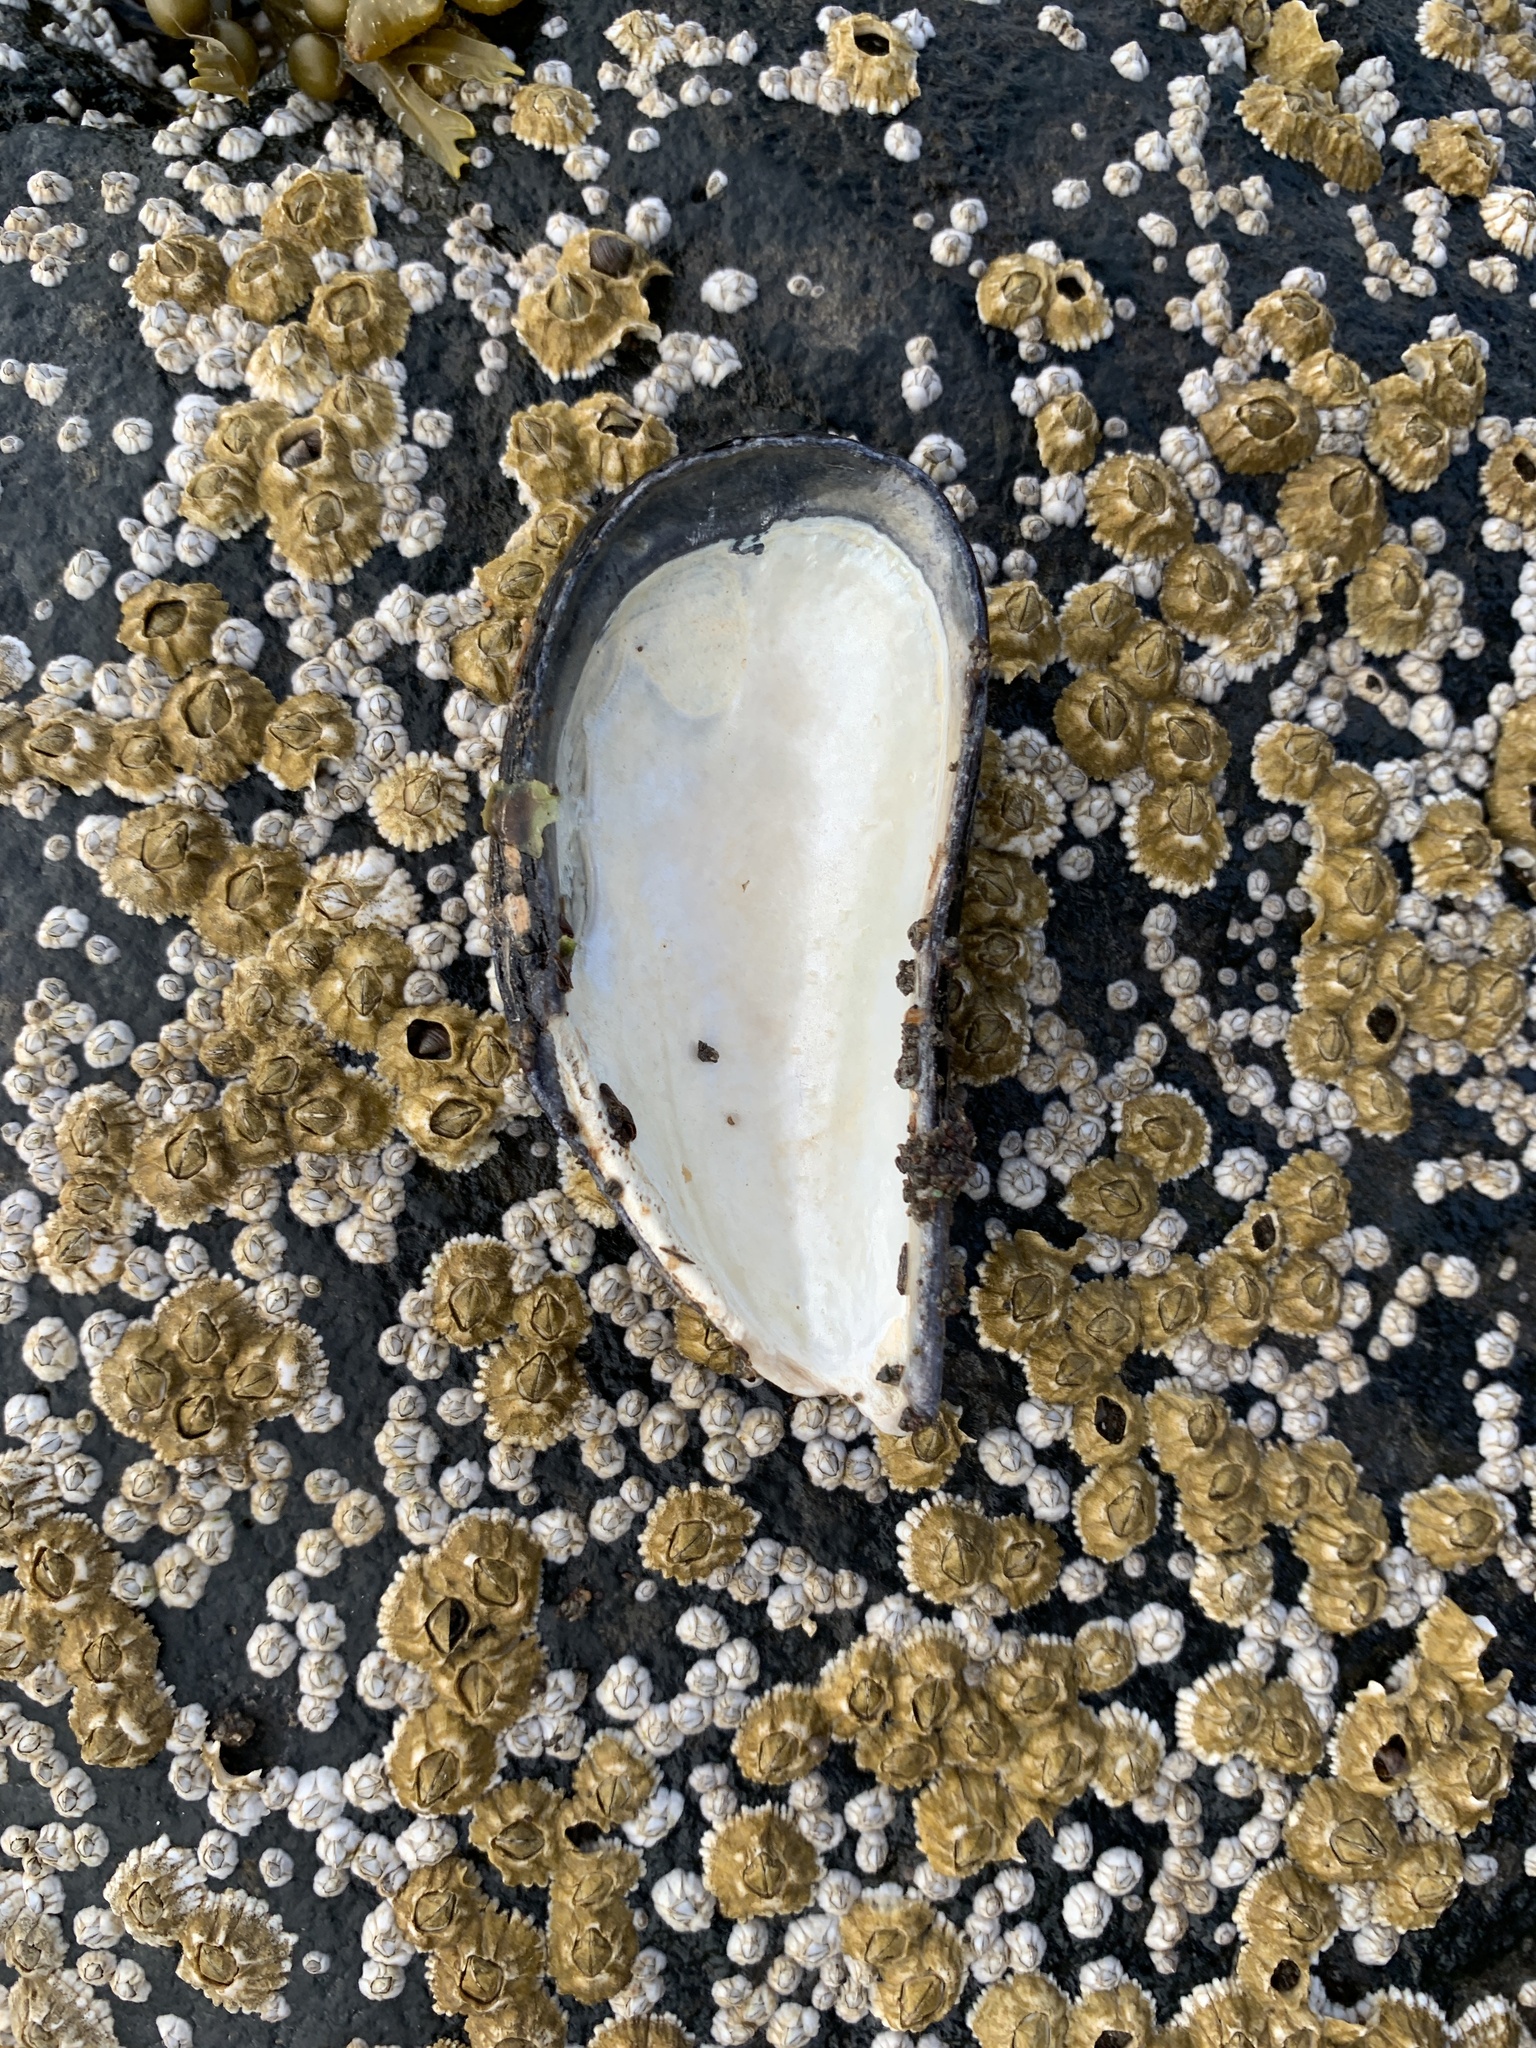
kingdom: Animalia
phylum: Mollusca
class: Bivalvia
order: Mytilida
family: Mytilidae
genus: Mytilus
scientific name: Mytilus
